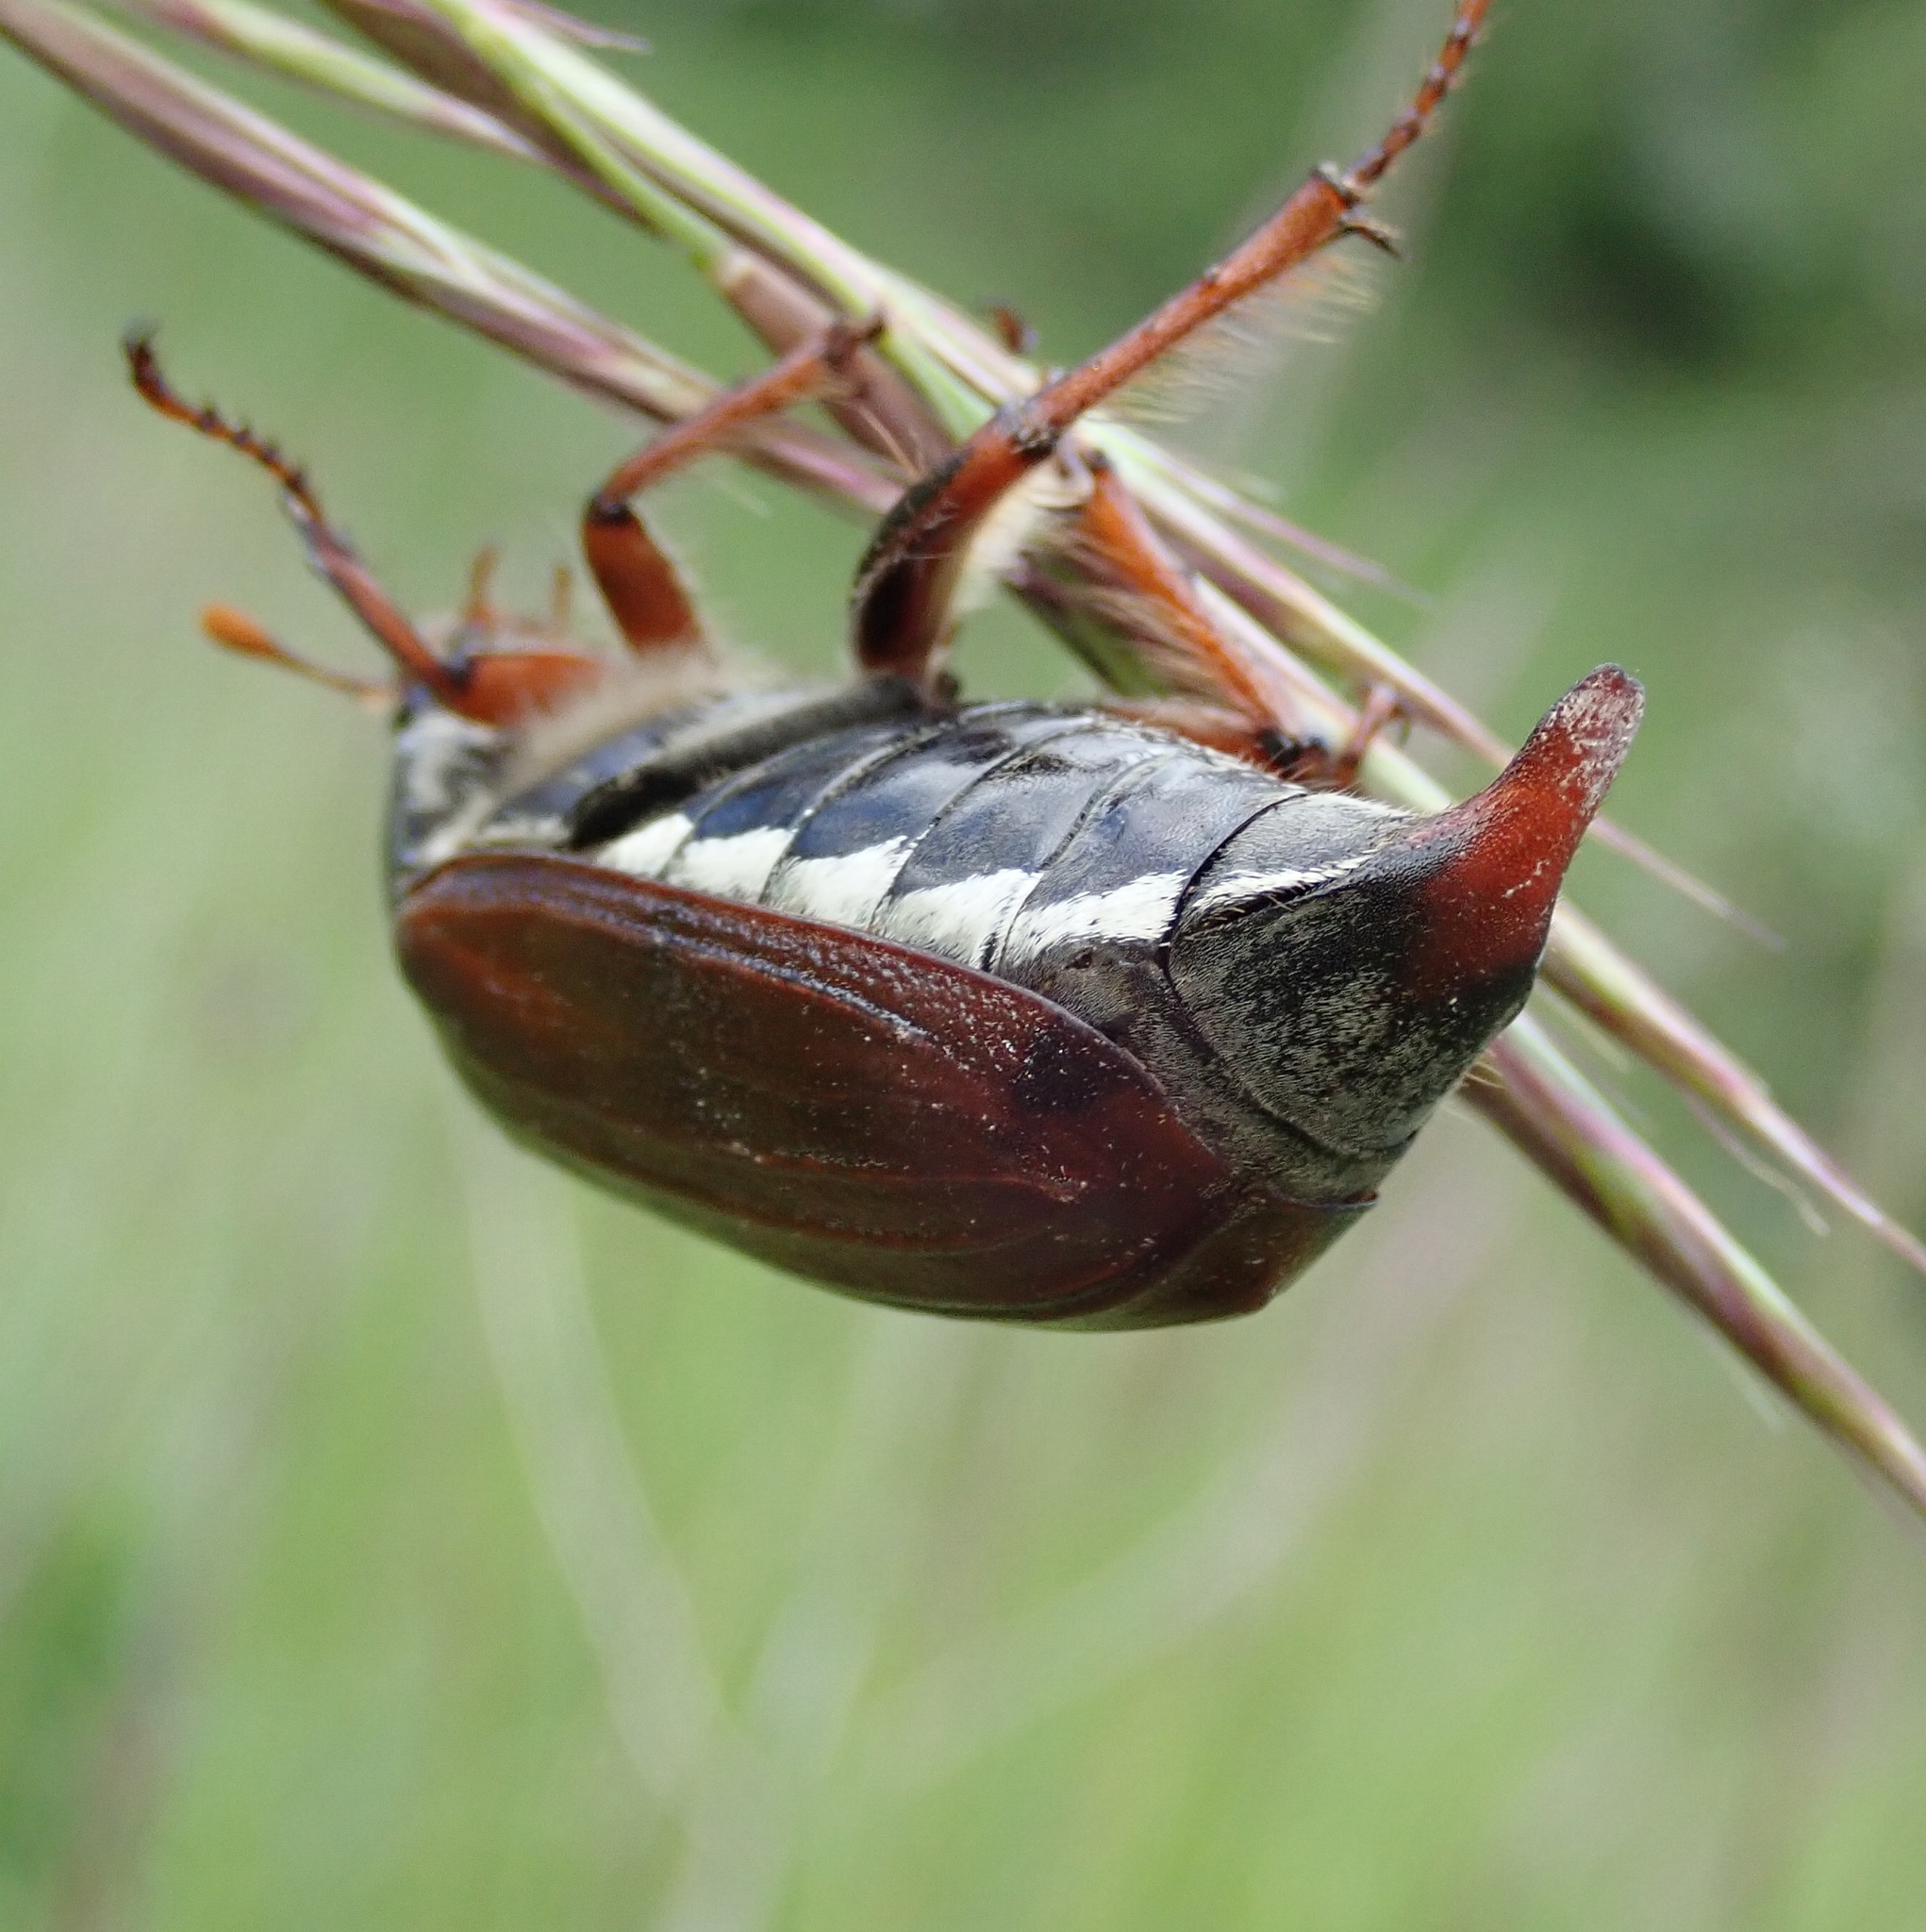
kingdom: Animalia
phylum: Arthropoda
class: Insecta
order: Coleoptera
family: Scarabaeidae
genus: Melolontha
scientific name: Melolontha melolontha
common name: Cockchafer maybeetle
